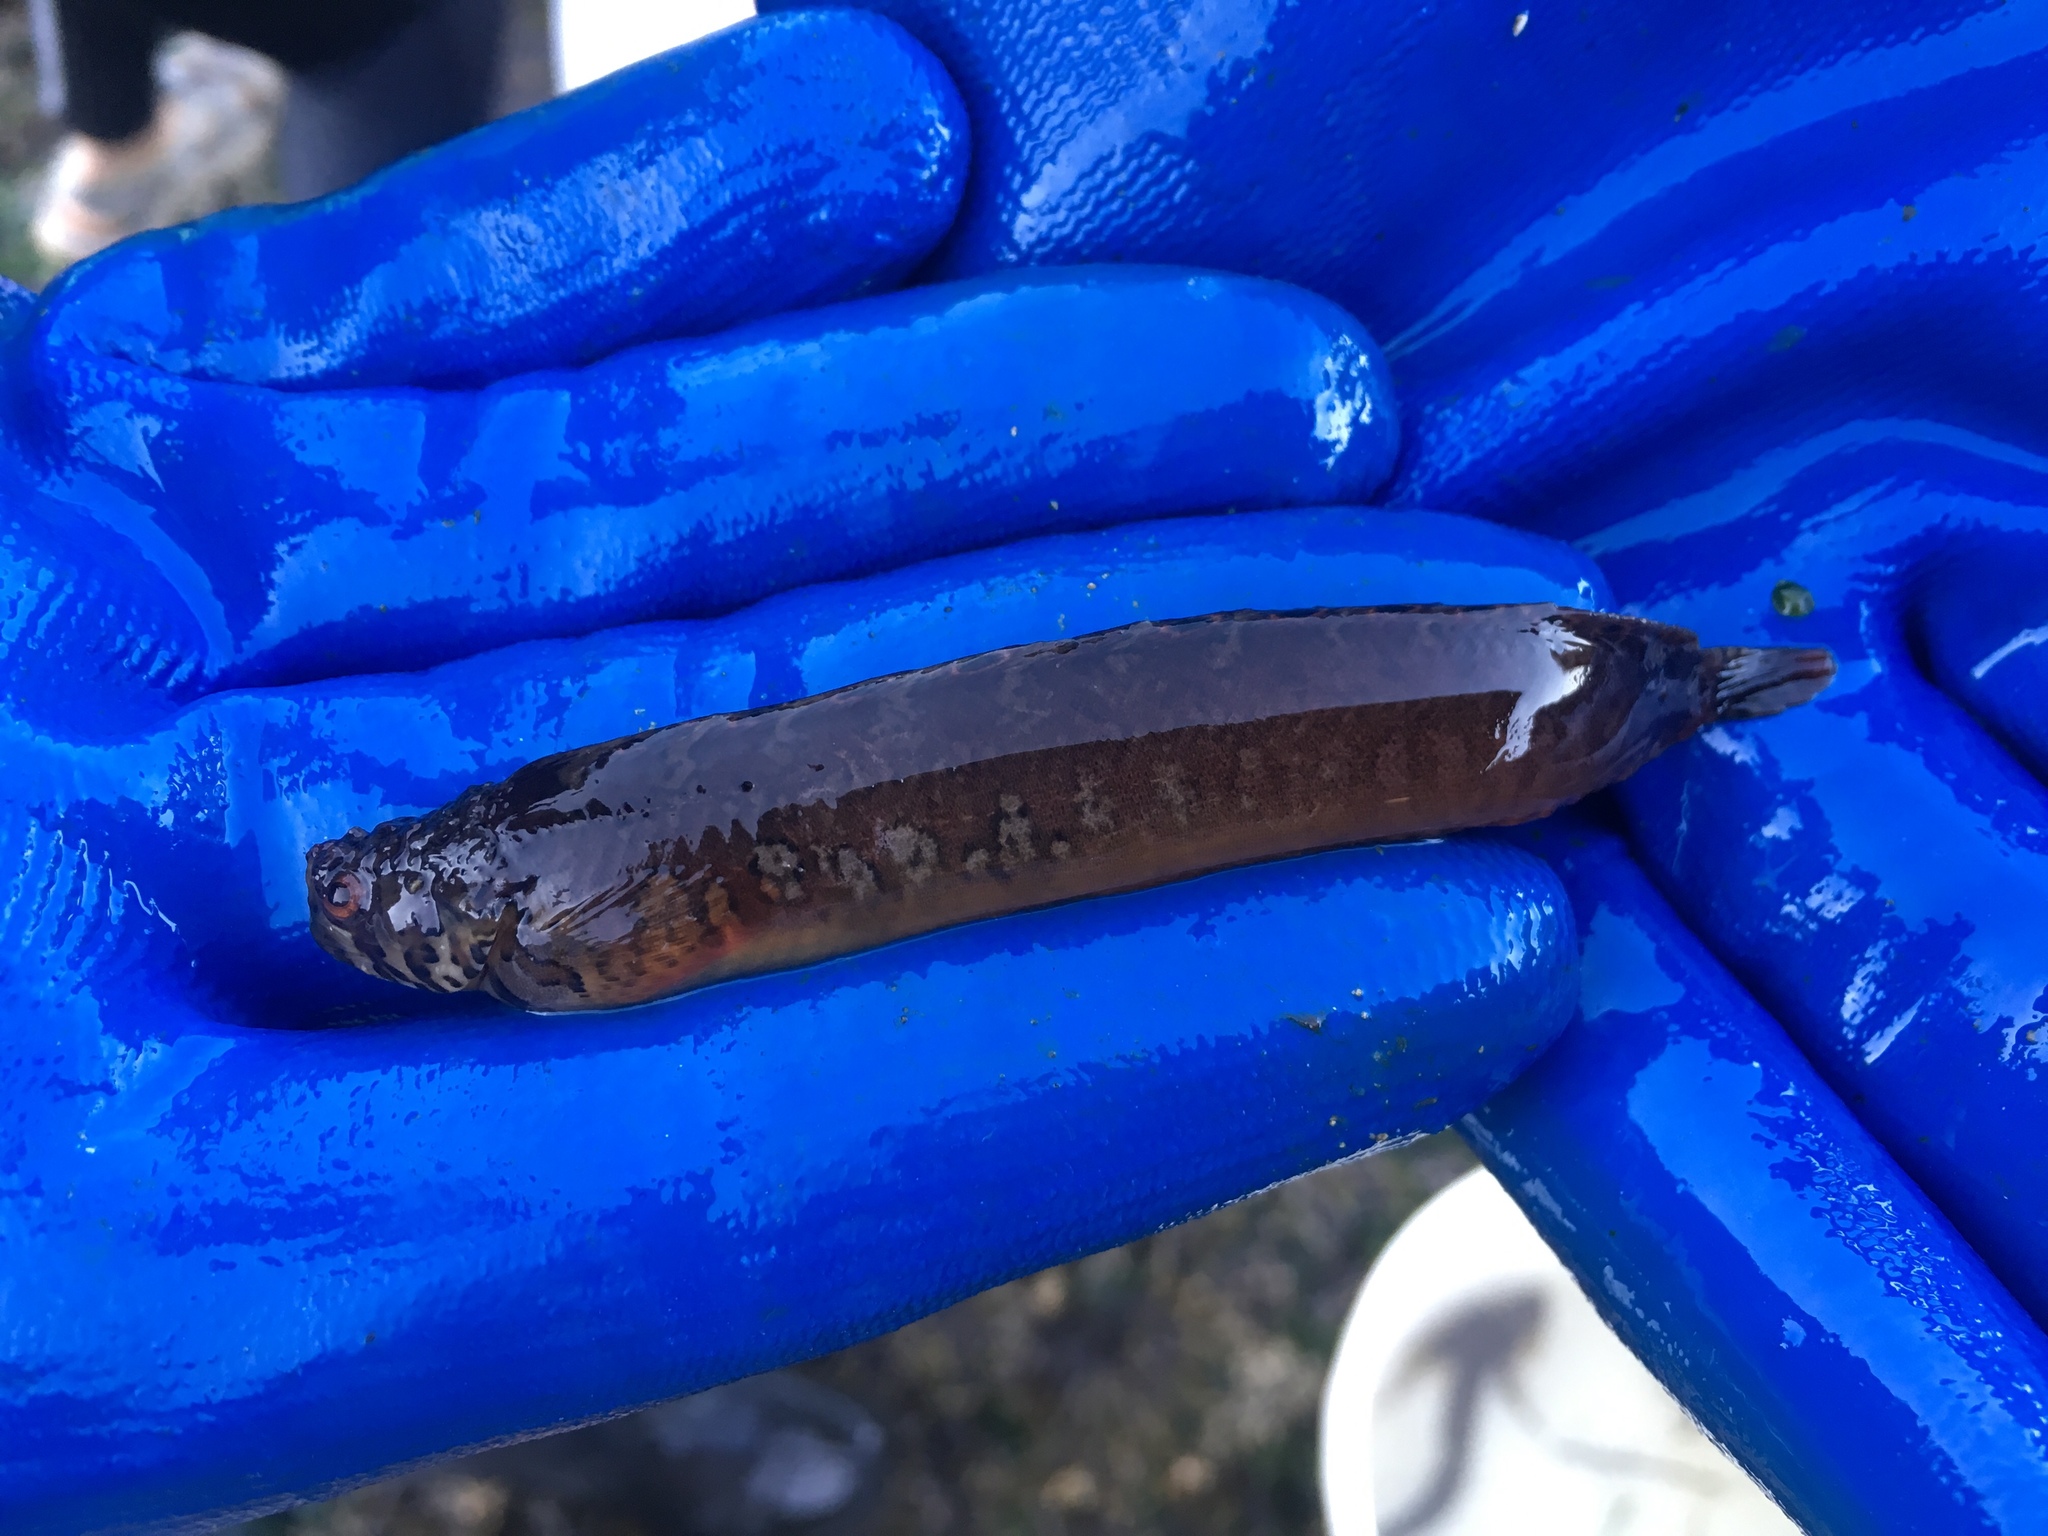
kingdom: Animalia
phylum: Chordata
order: Perciformes
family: Stichaeidae
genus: Chirolophis
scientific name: Chirolophis nugator
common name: Mosshead warbonnet
